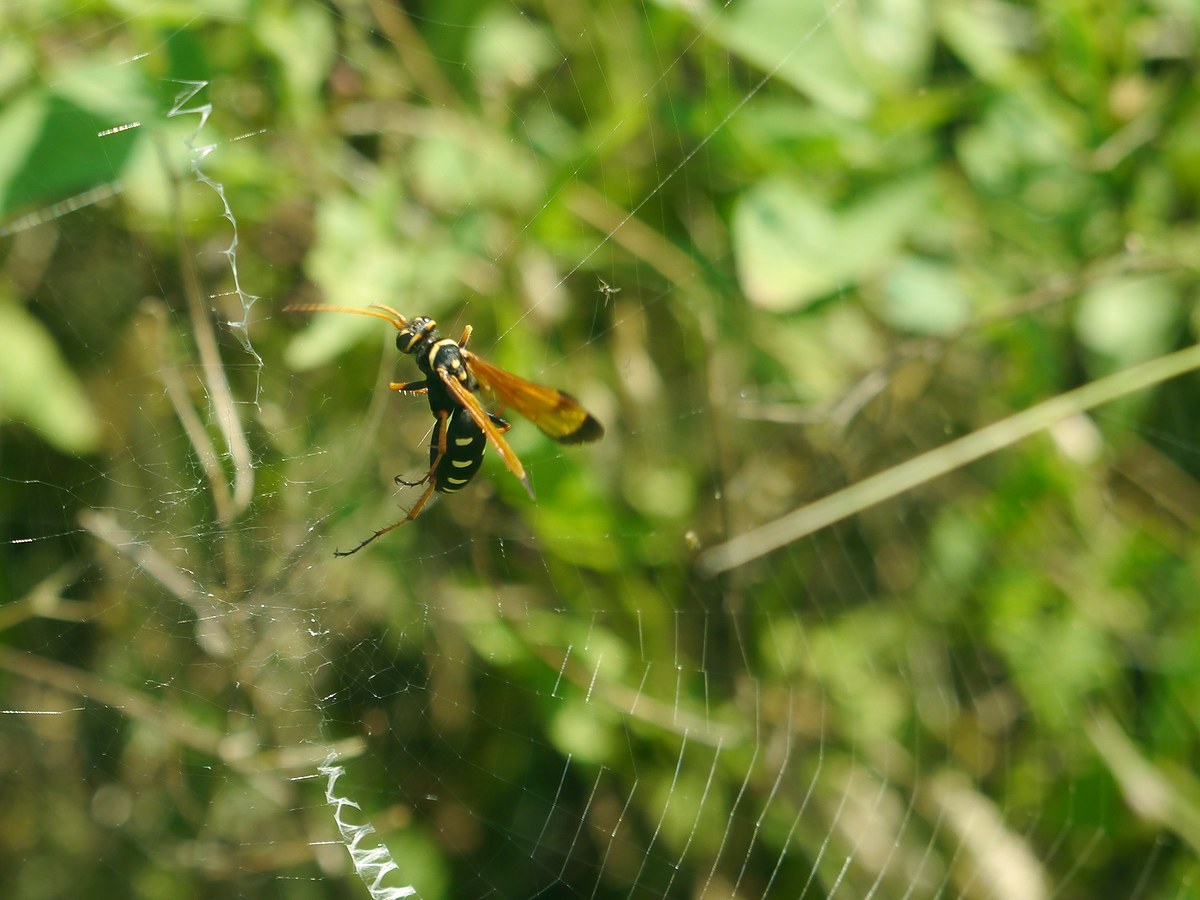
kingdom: Animalia
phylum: Arthropoda
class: Insecta
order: Hymenoptera
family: Pompilidae
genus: Parabatozonus
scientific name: Parabatozonus lacerticida
